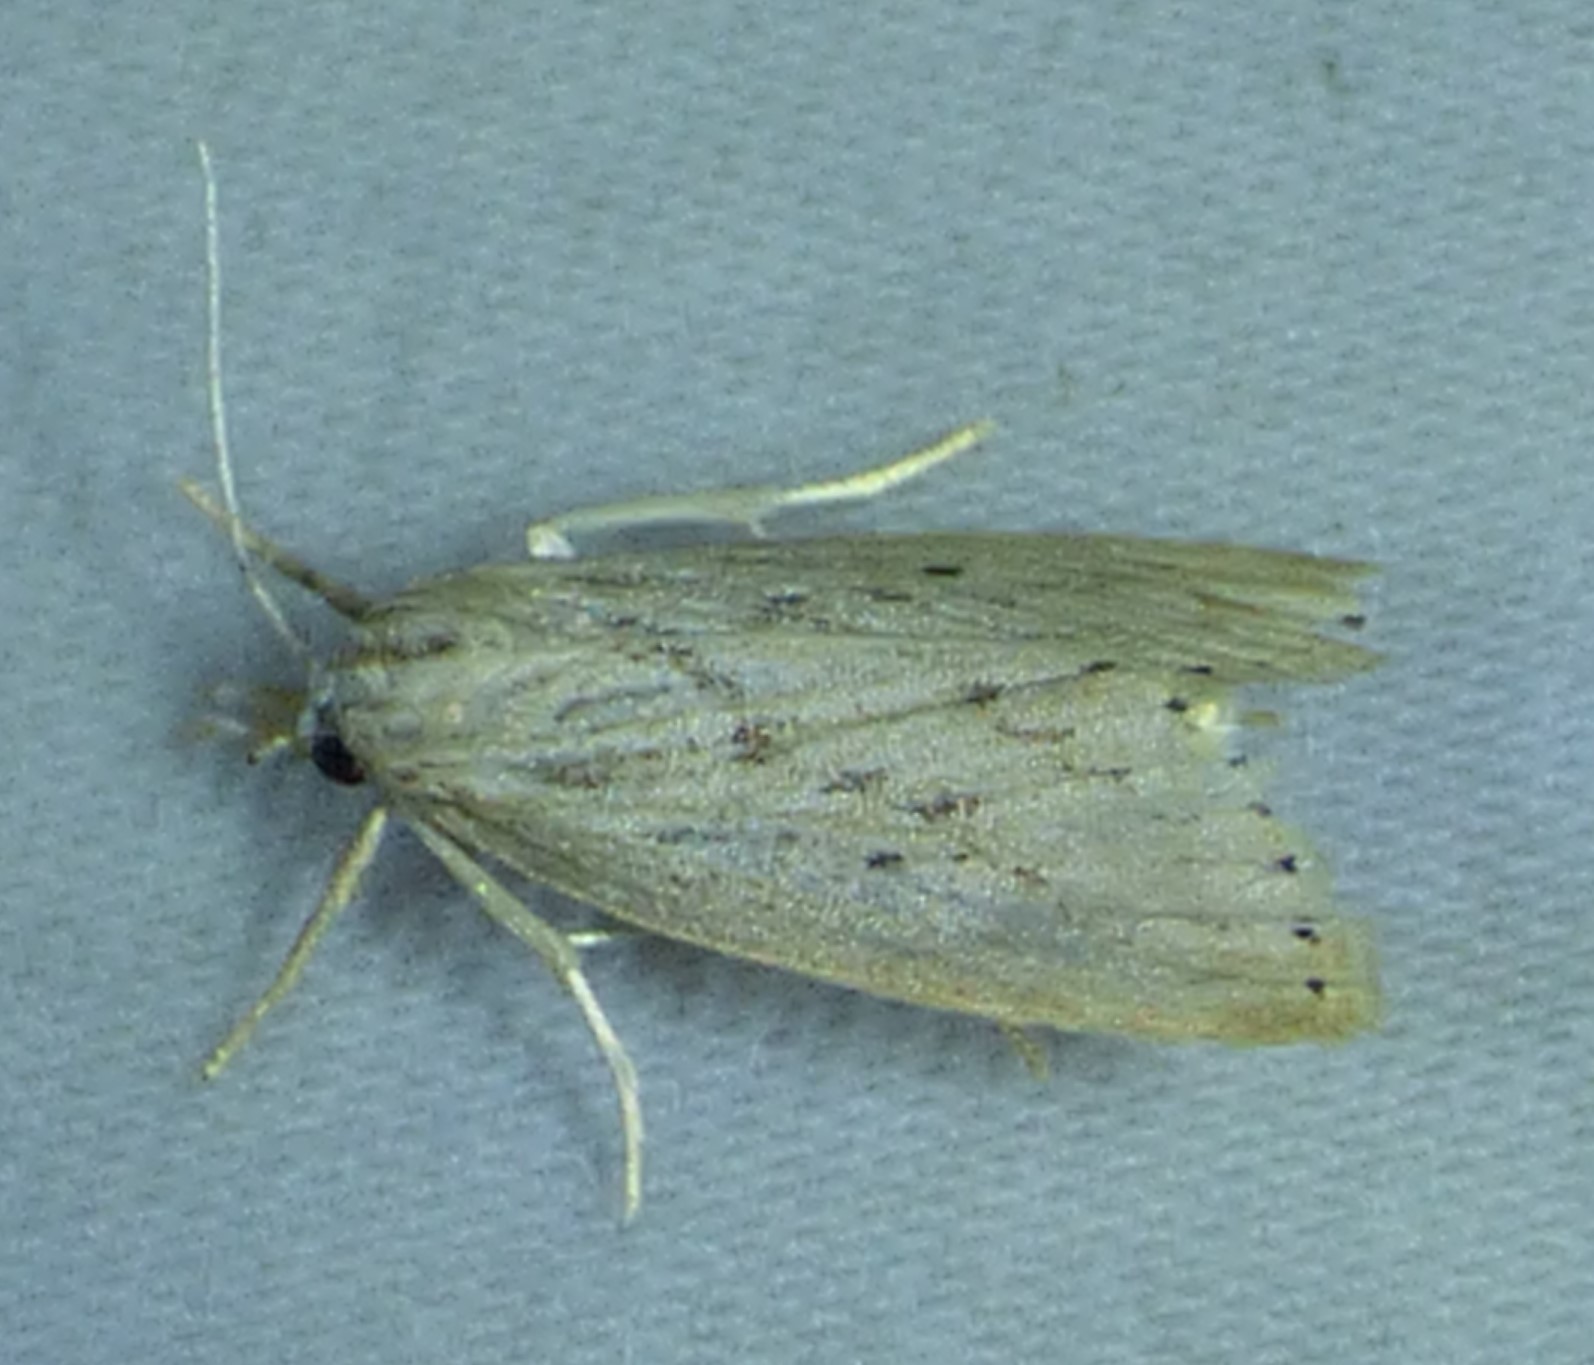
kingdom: Animalia
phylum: Arthropoda
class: Insecta
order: Lepidoptera
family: Crambidae
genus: Diatraea
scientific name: Diatraea lisetta
